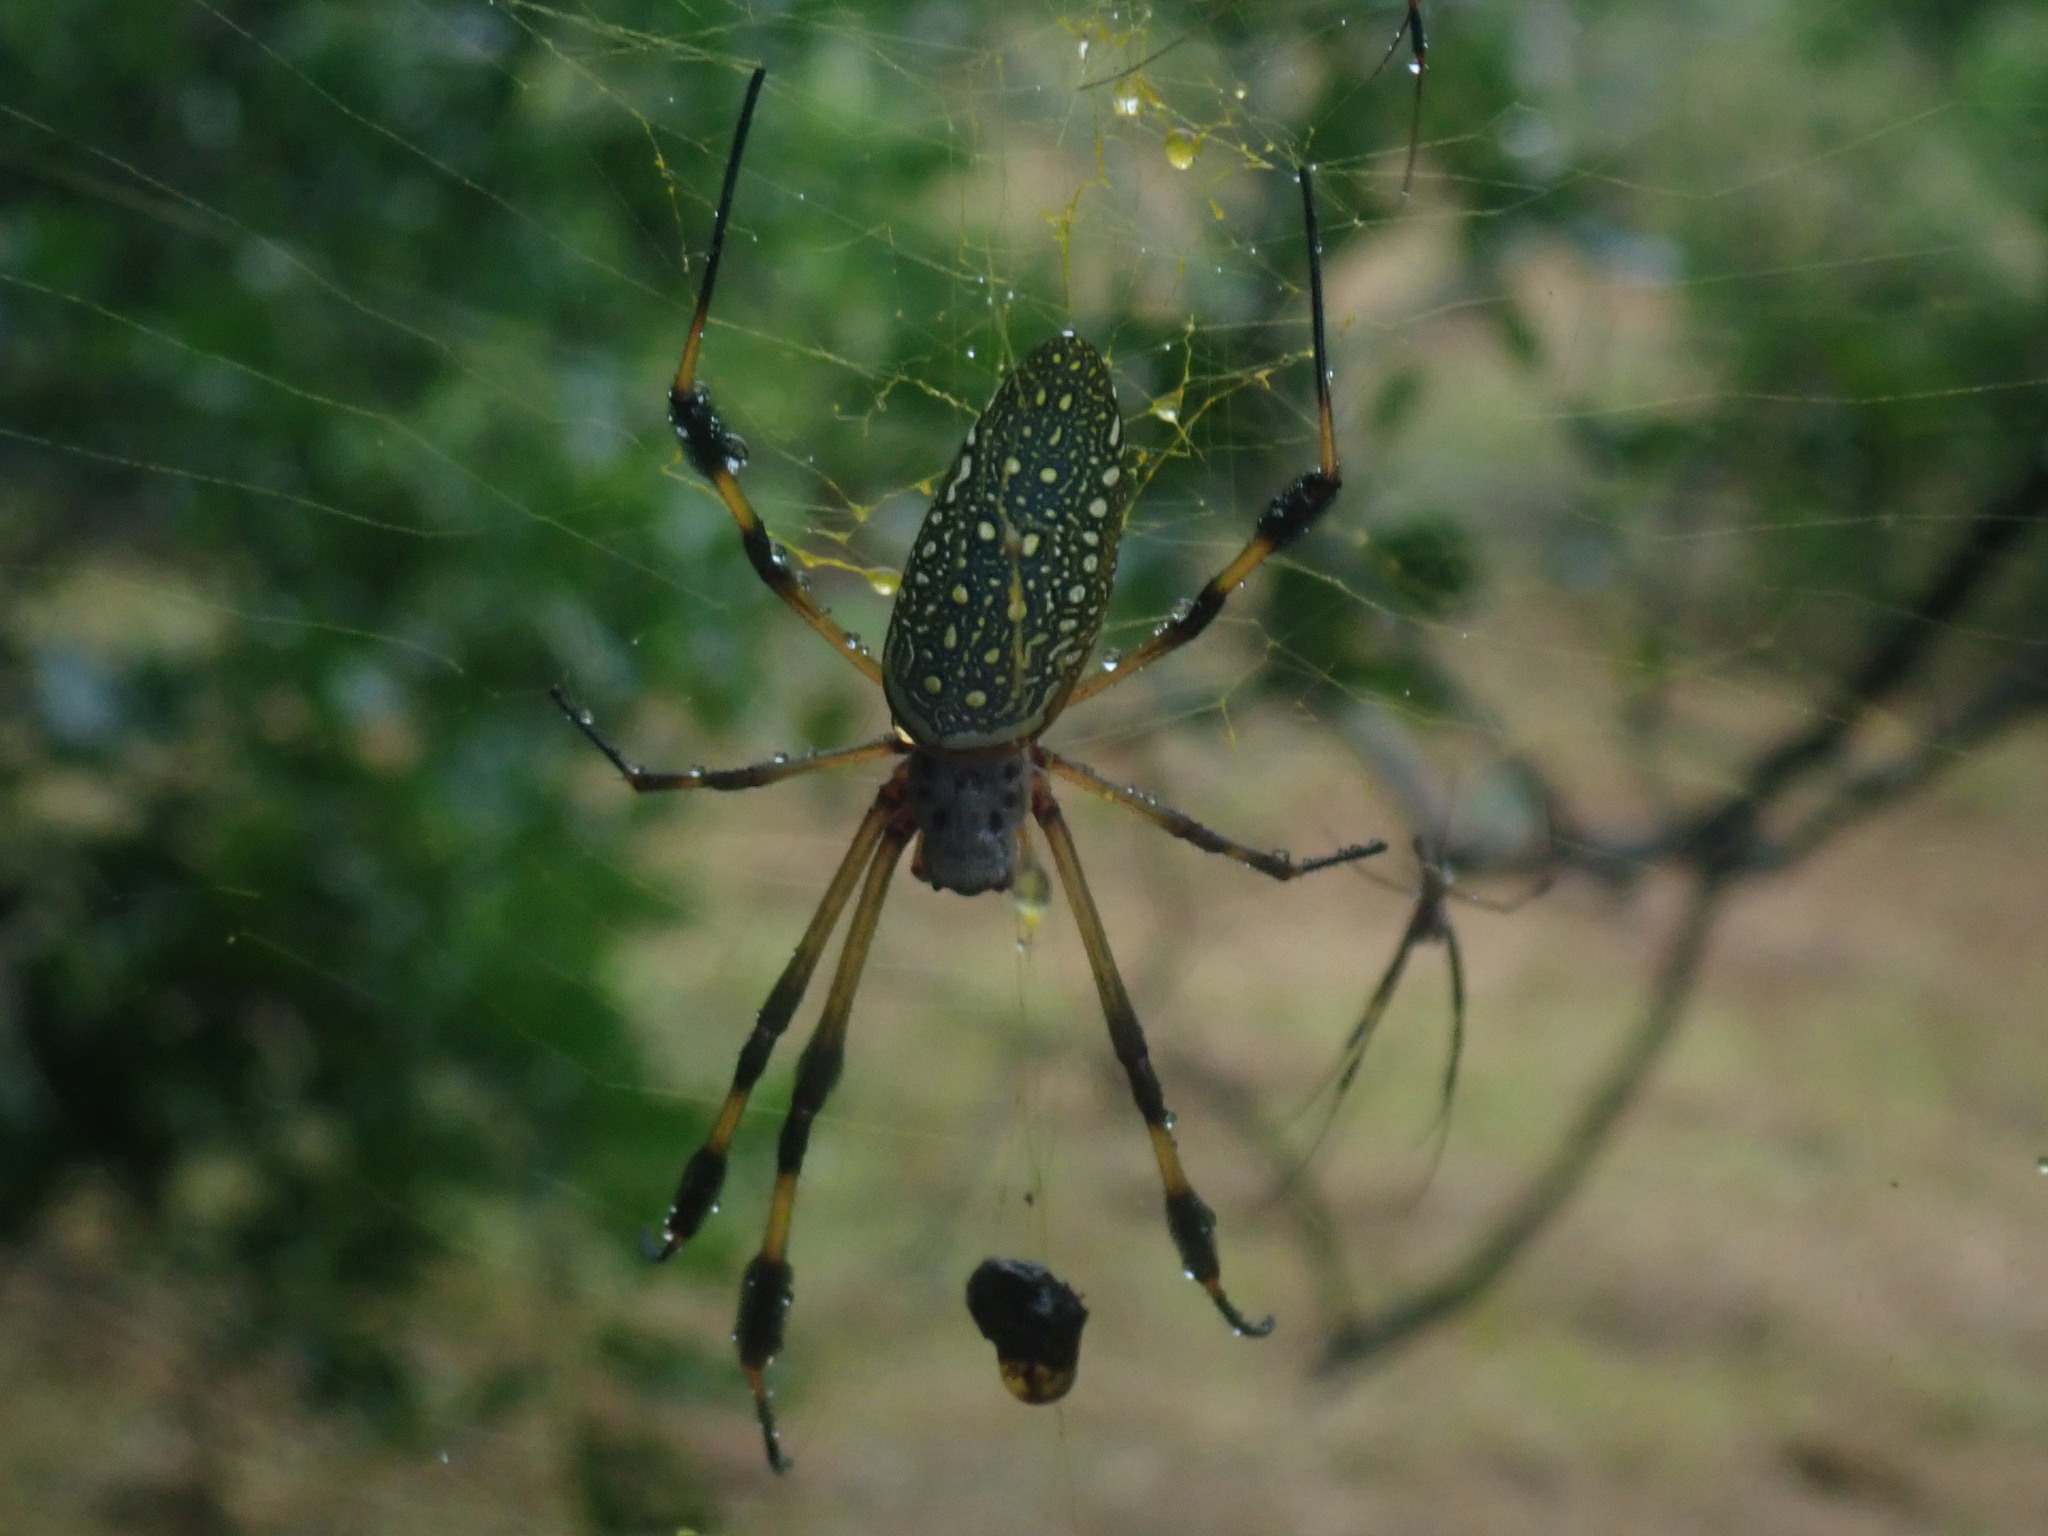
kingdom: Animalia
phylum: Arthropoda
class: Arachnida
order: Araneae
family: Araneidae
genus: Trichonephila
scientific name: Trichonephila clavipes
